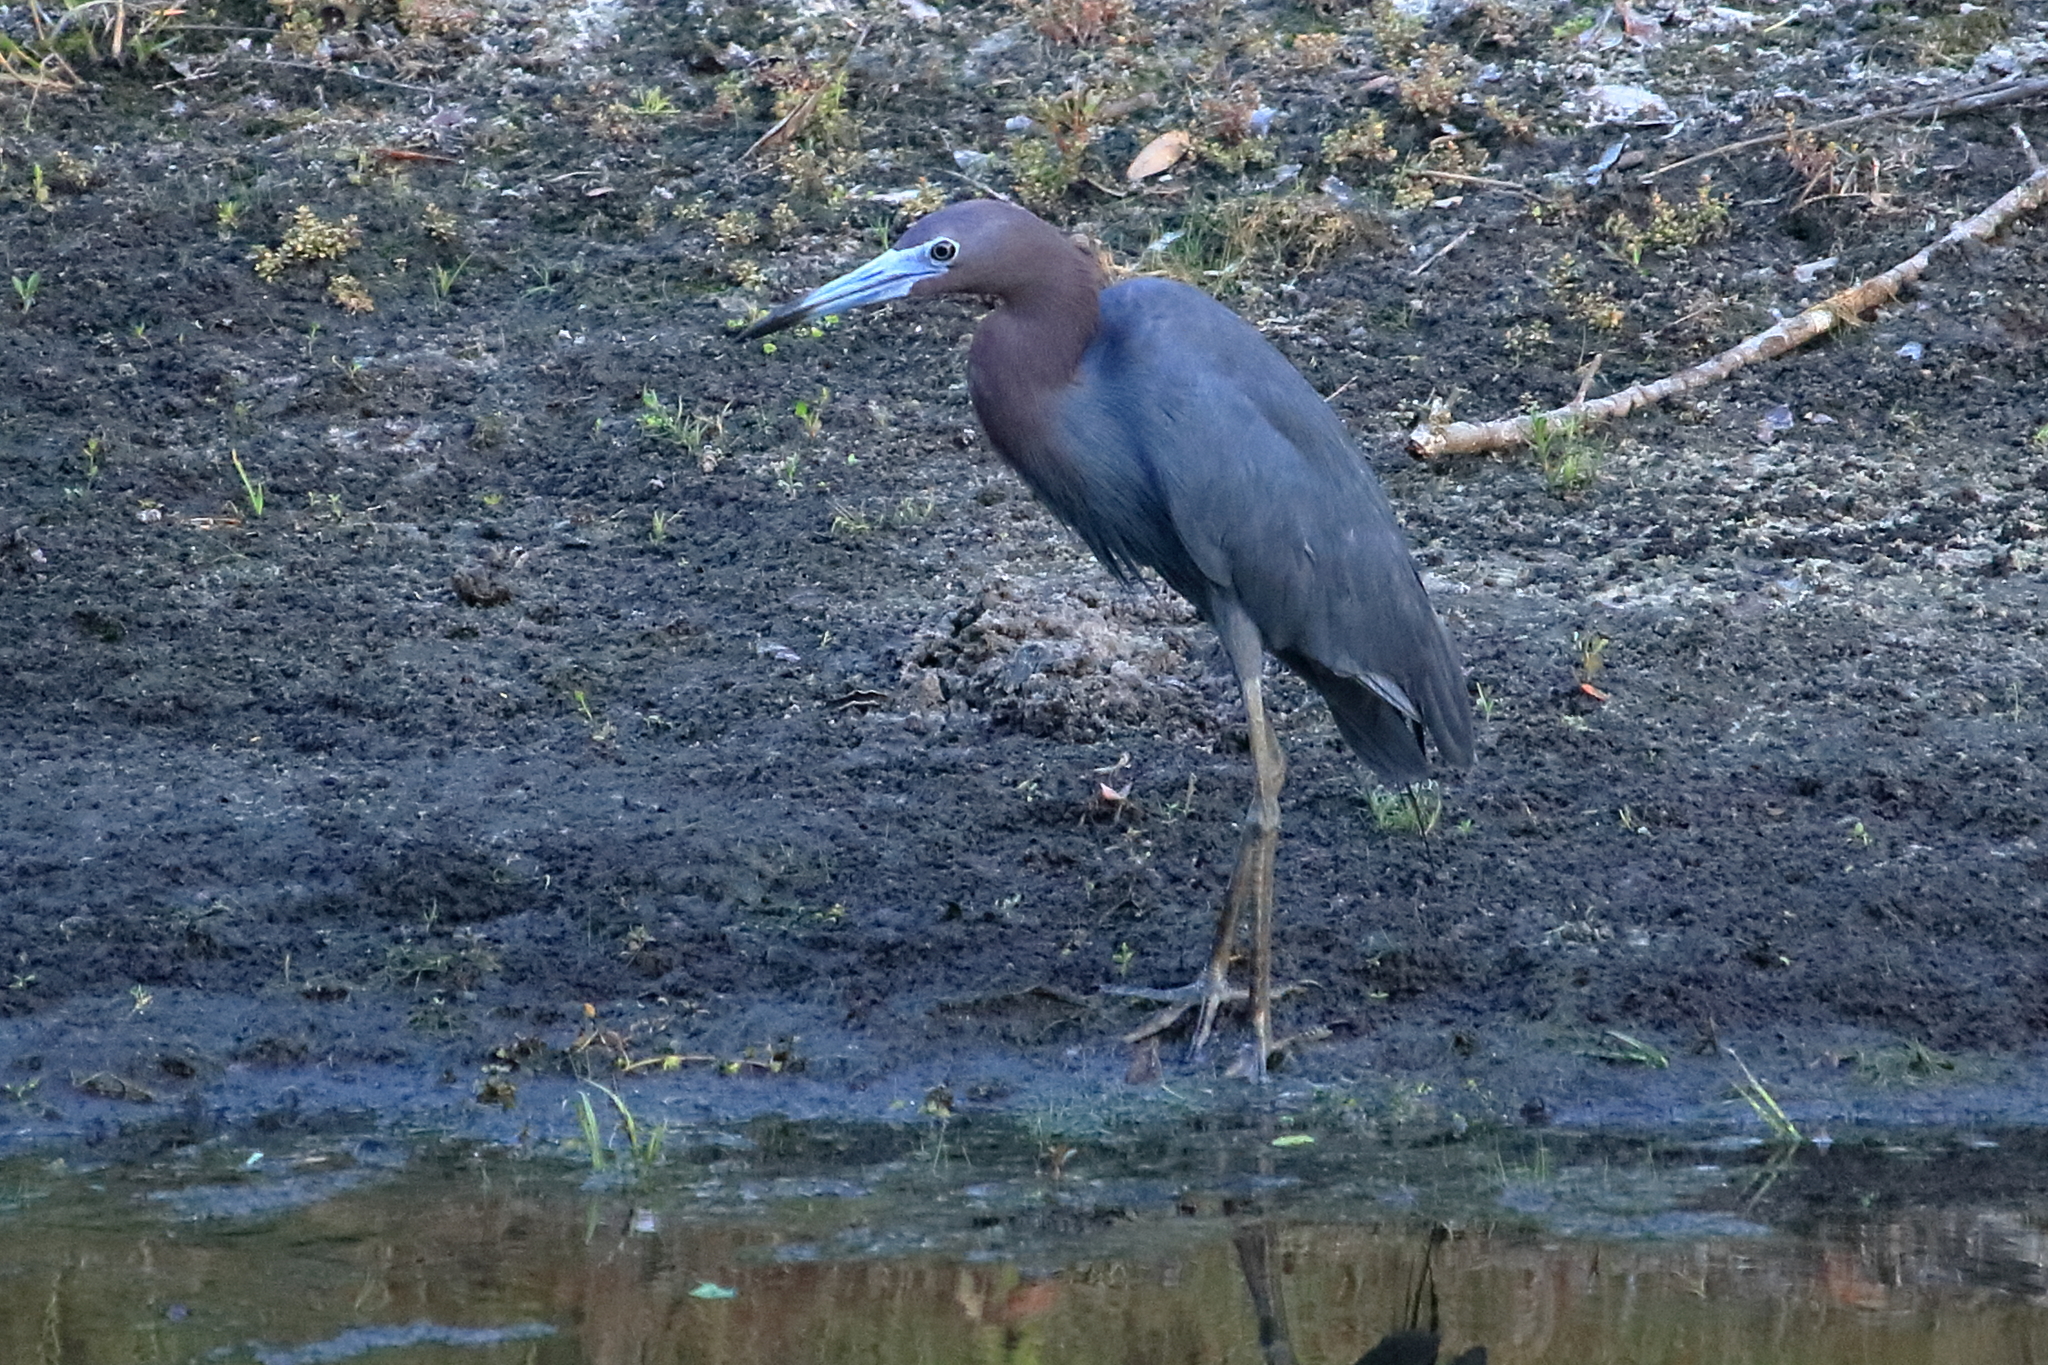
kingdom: Animalia
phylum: Chordata
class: Aves
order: Pelecaniformes
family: Ardeidae
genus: Egretta
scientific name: Egretta caerulea
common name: Little blue heron
